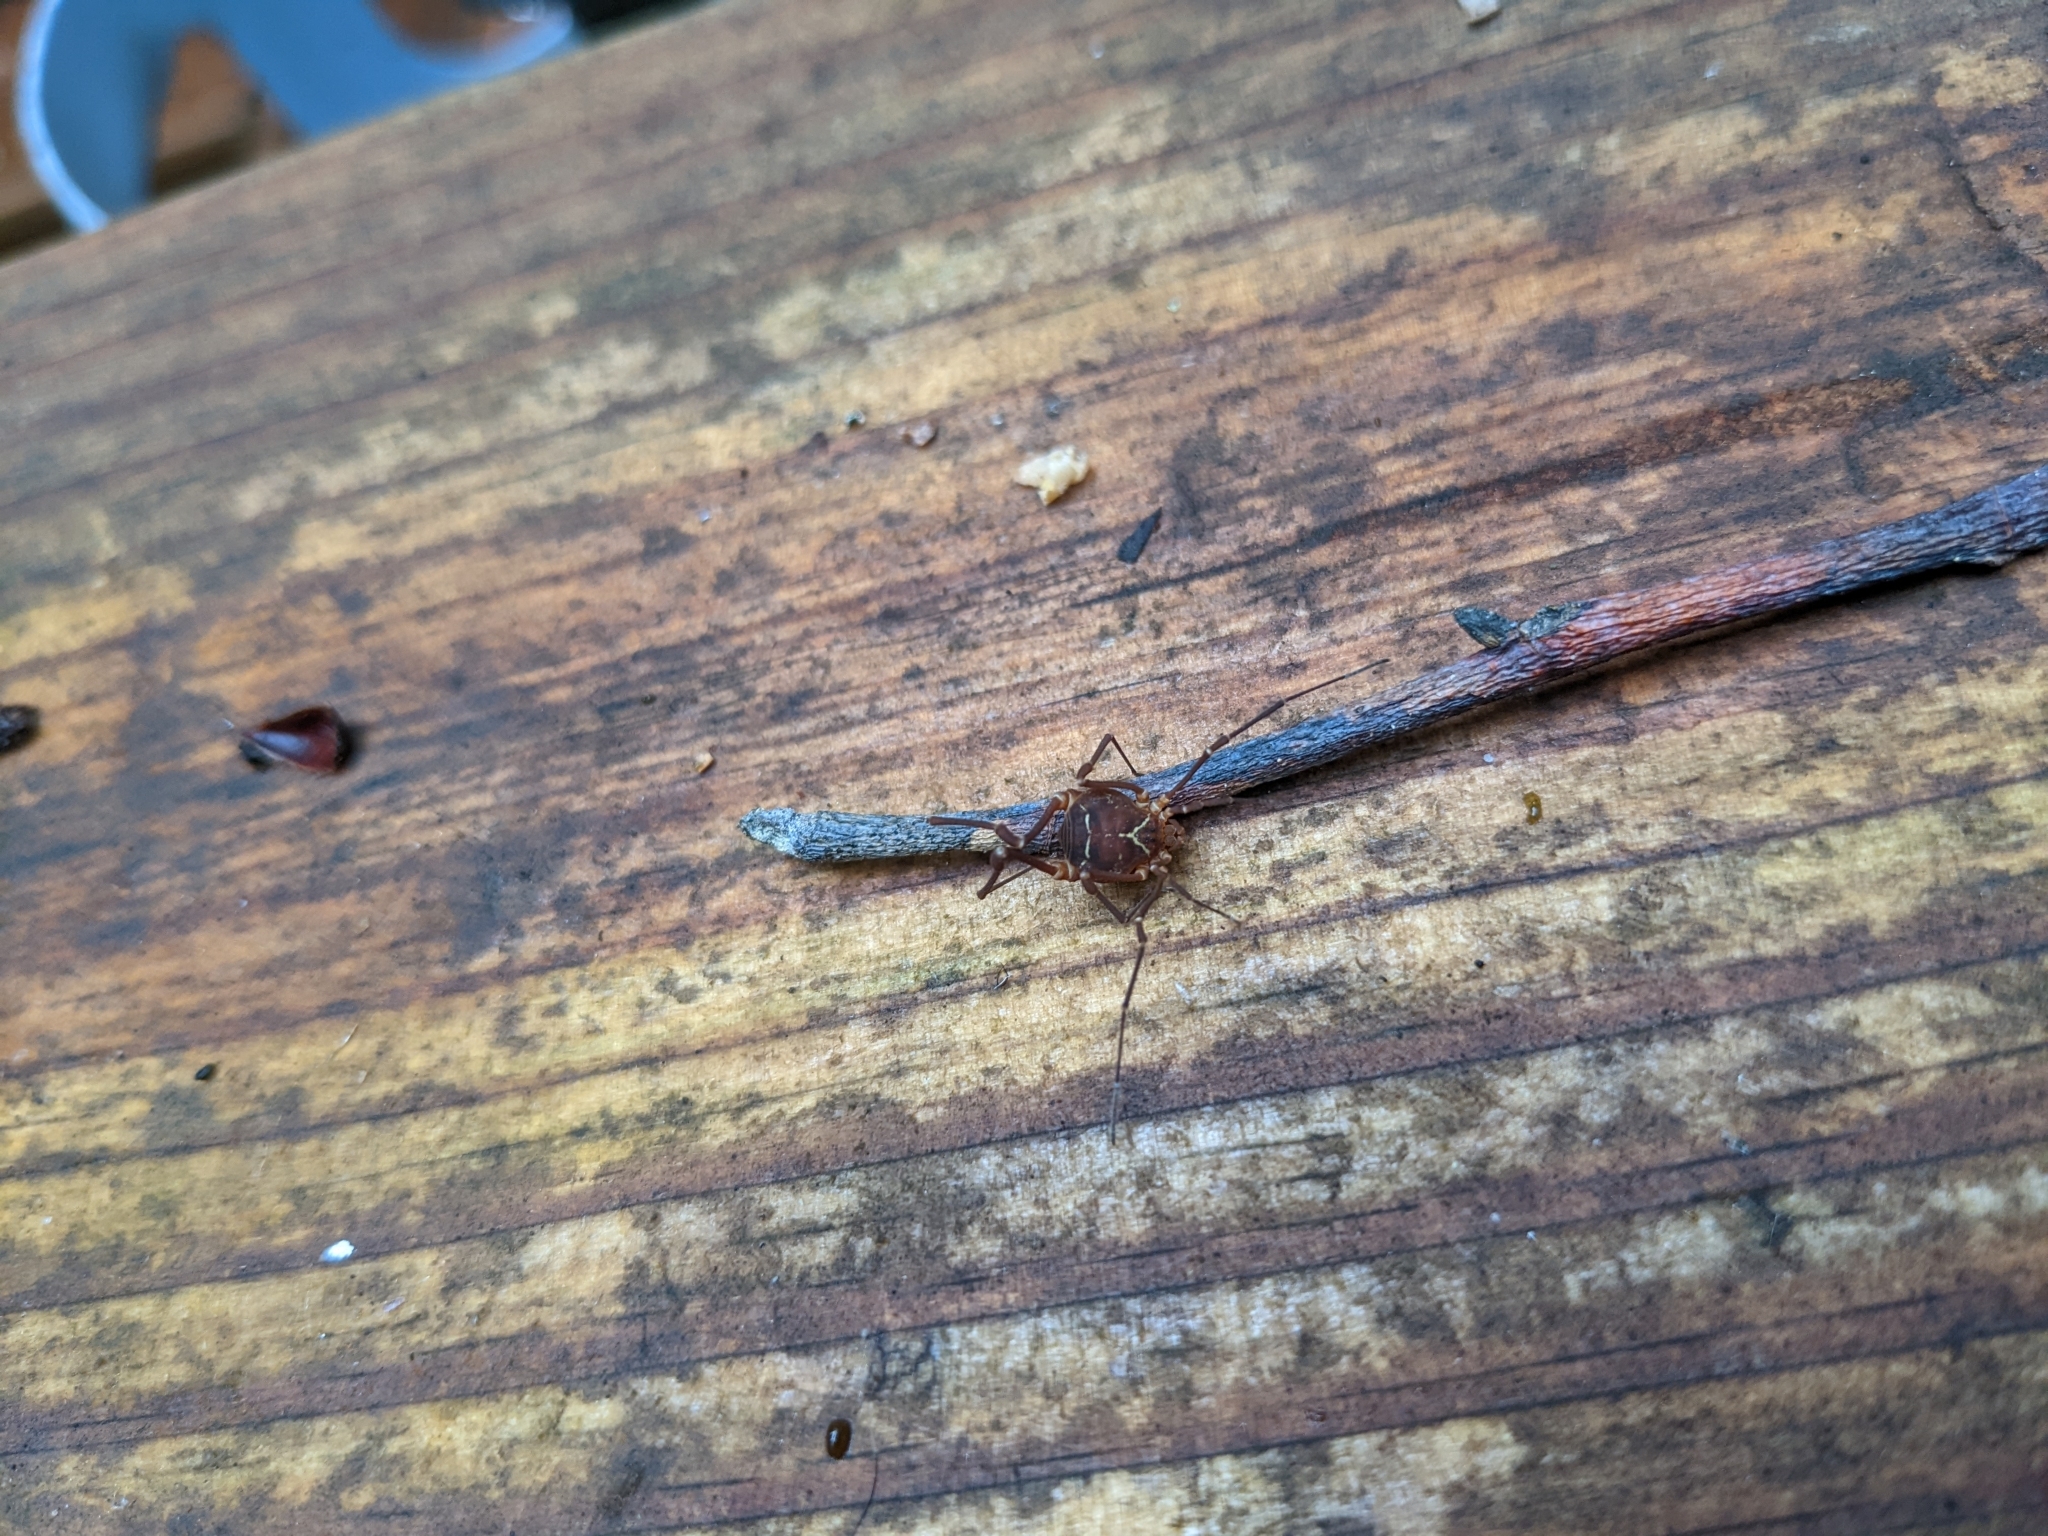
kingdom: Animalia
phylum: Arthropoda
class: Arachnida
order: Opiliones
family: Cosmetidae
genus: Libitioides
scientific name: Libitioides sayi
